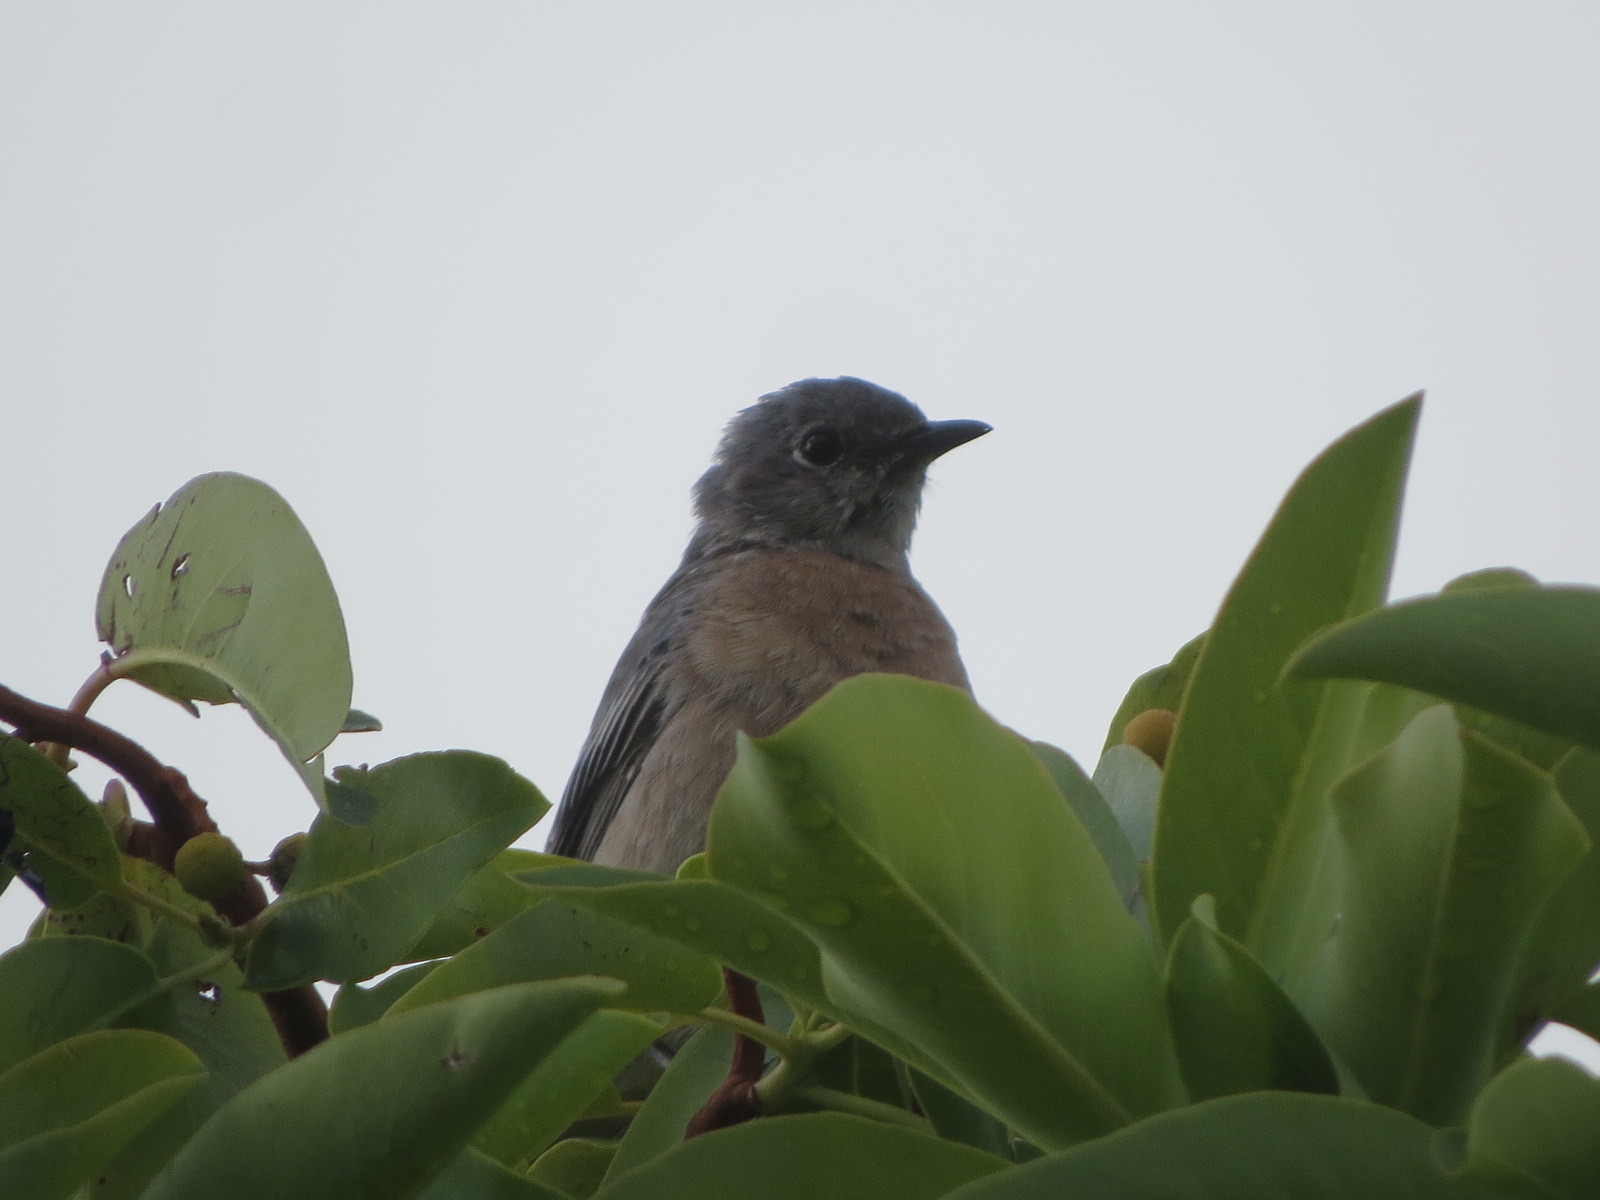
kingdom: Animalia
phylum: Chordata
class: Aves
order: Passeriformes
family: Turdidae
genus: Sialia
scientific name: Sialia mexicana
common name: Western bluebird
